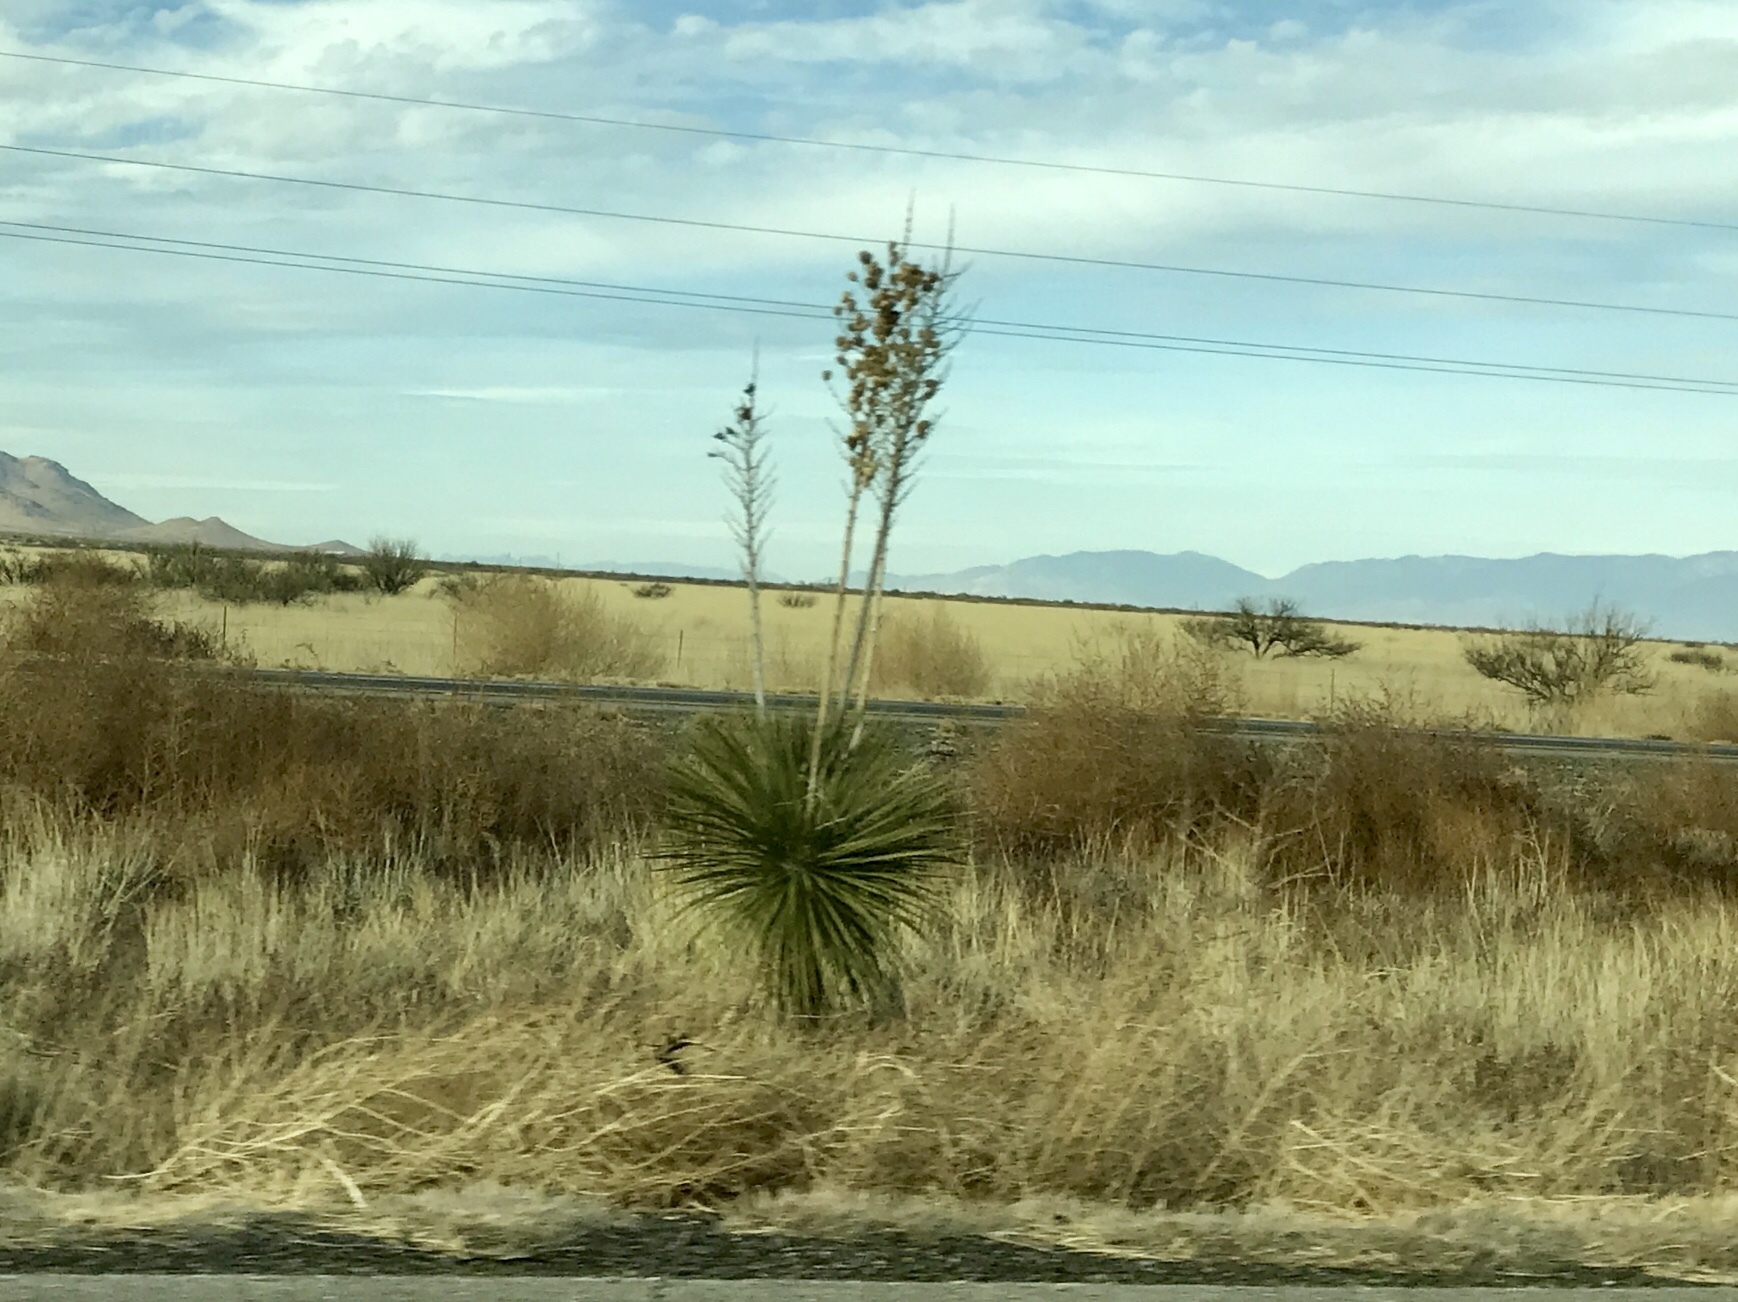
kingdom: Plantae
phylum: Tracheophyta
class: Liliopsida
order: Asparagales
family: Asparagaceae
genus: Yucca
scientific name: Yucca elata
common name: Palmella
